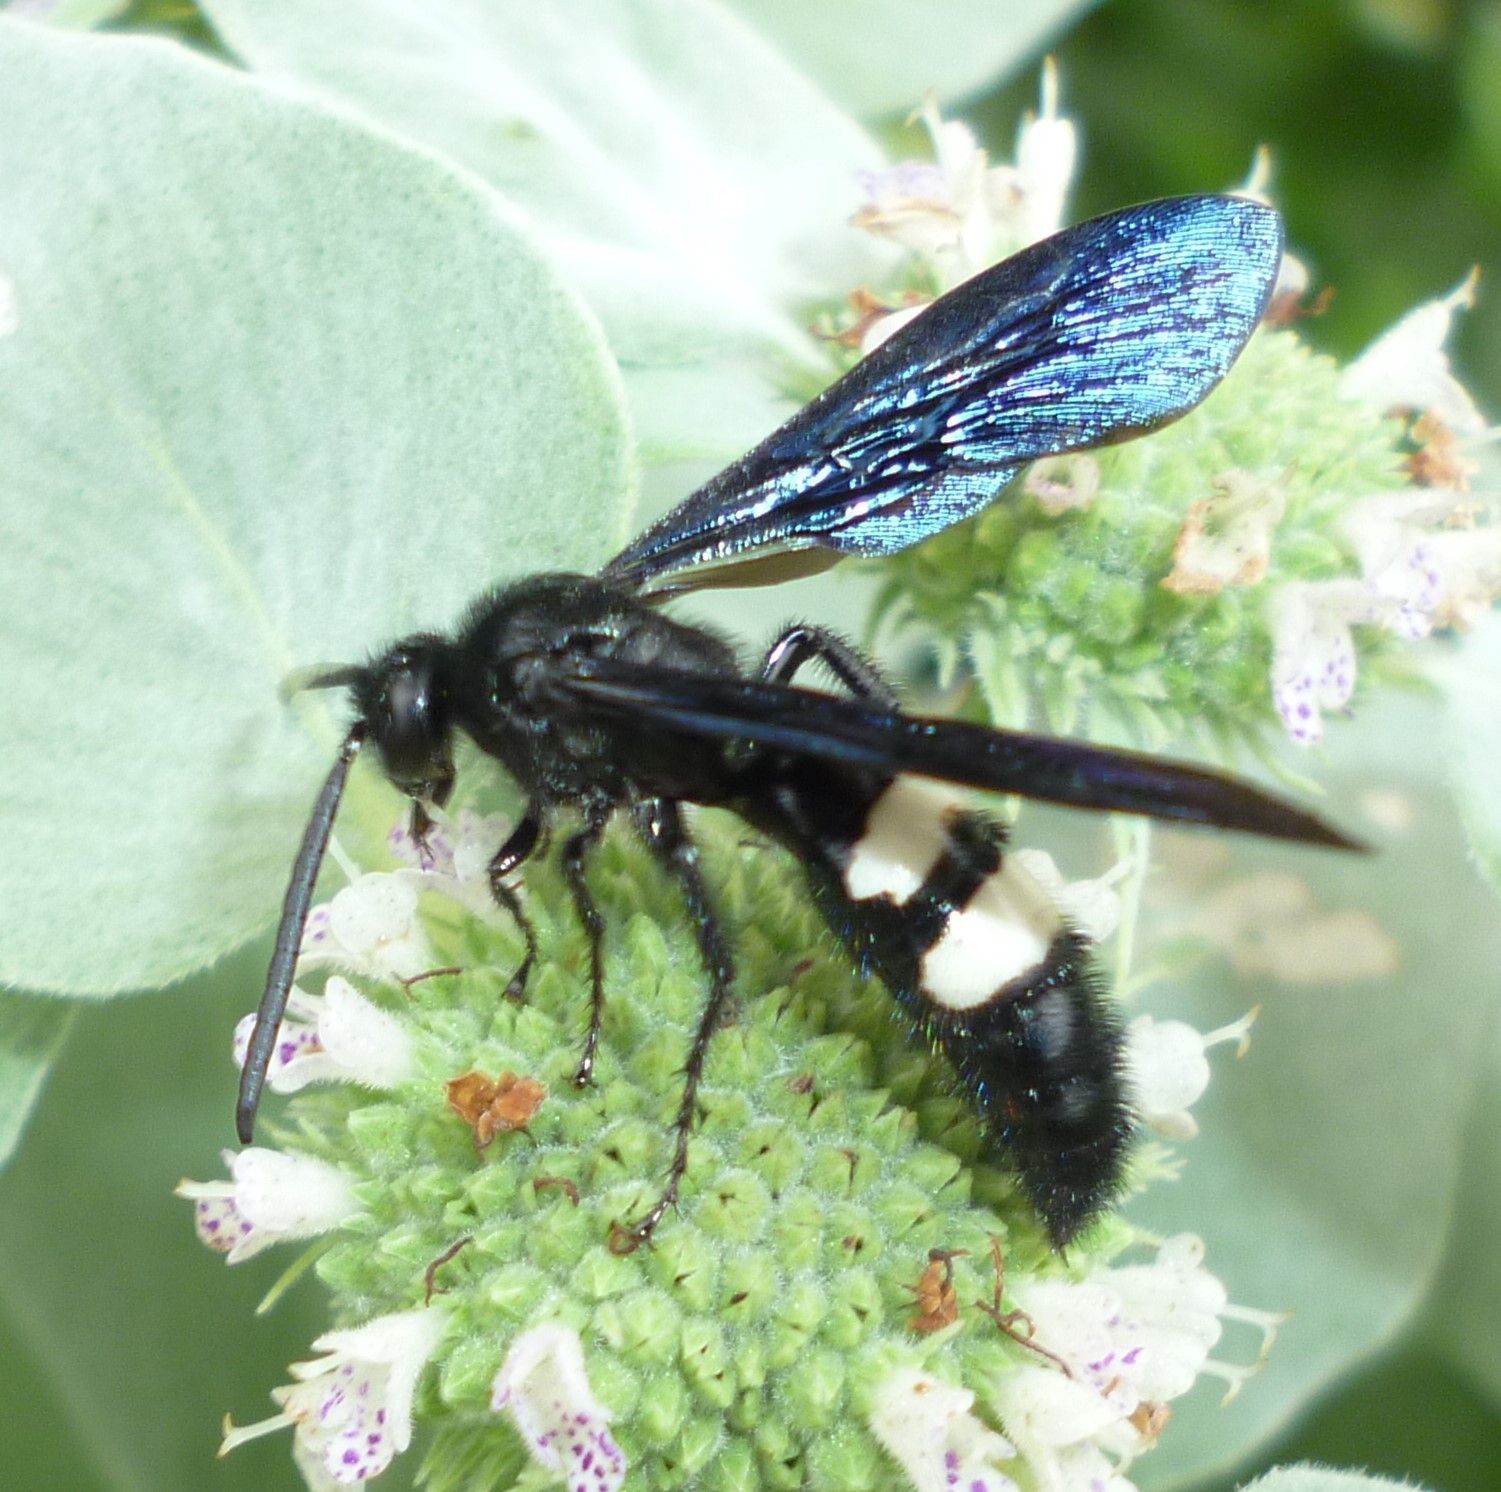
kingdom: Animalia
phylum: Arthropoda
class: Insecta
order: Hymenoptera
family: Scoliidae
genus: Scolia
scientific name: Scolia bicincta
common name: Double-banded scoliid wasp
